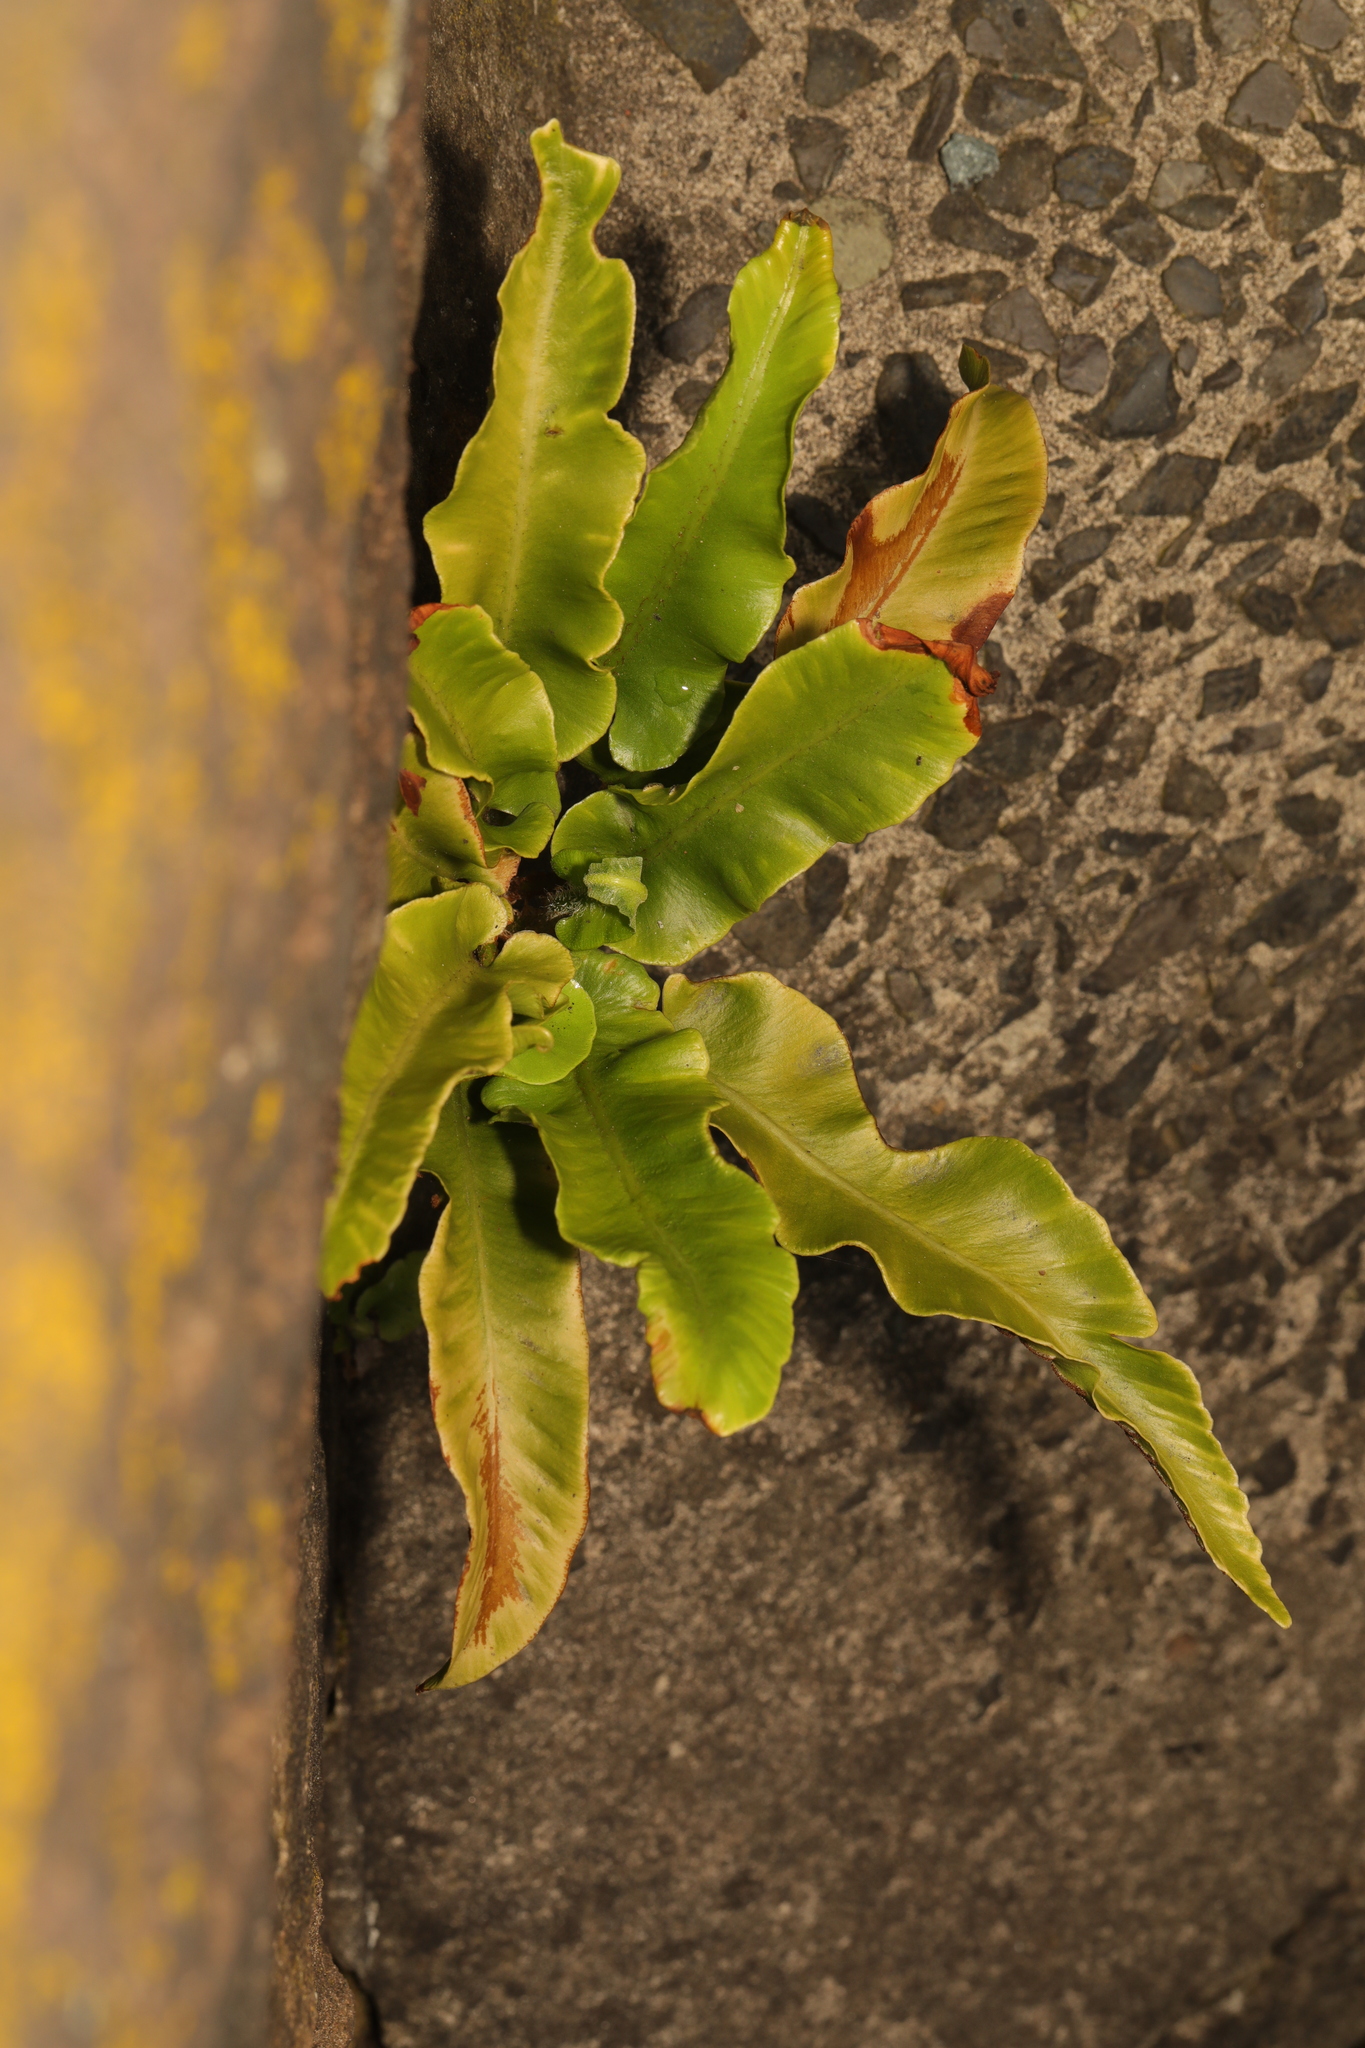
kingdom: Plantae
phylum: Tracheophyta
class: Polypodiopsida
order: Polypodiales
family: Aspleniaceae
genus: Asplenium
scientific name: Asplenium scolopendrium
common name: Hart's-tongue fern
